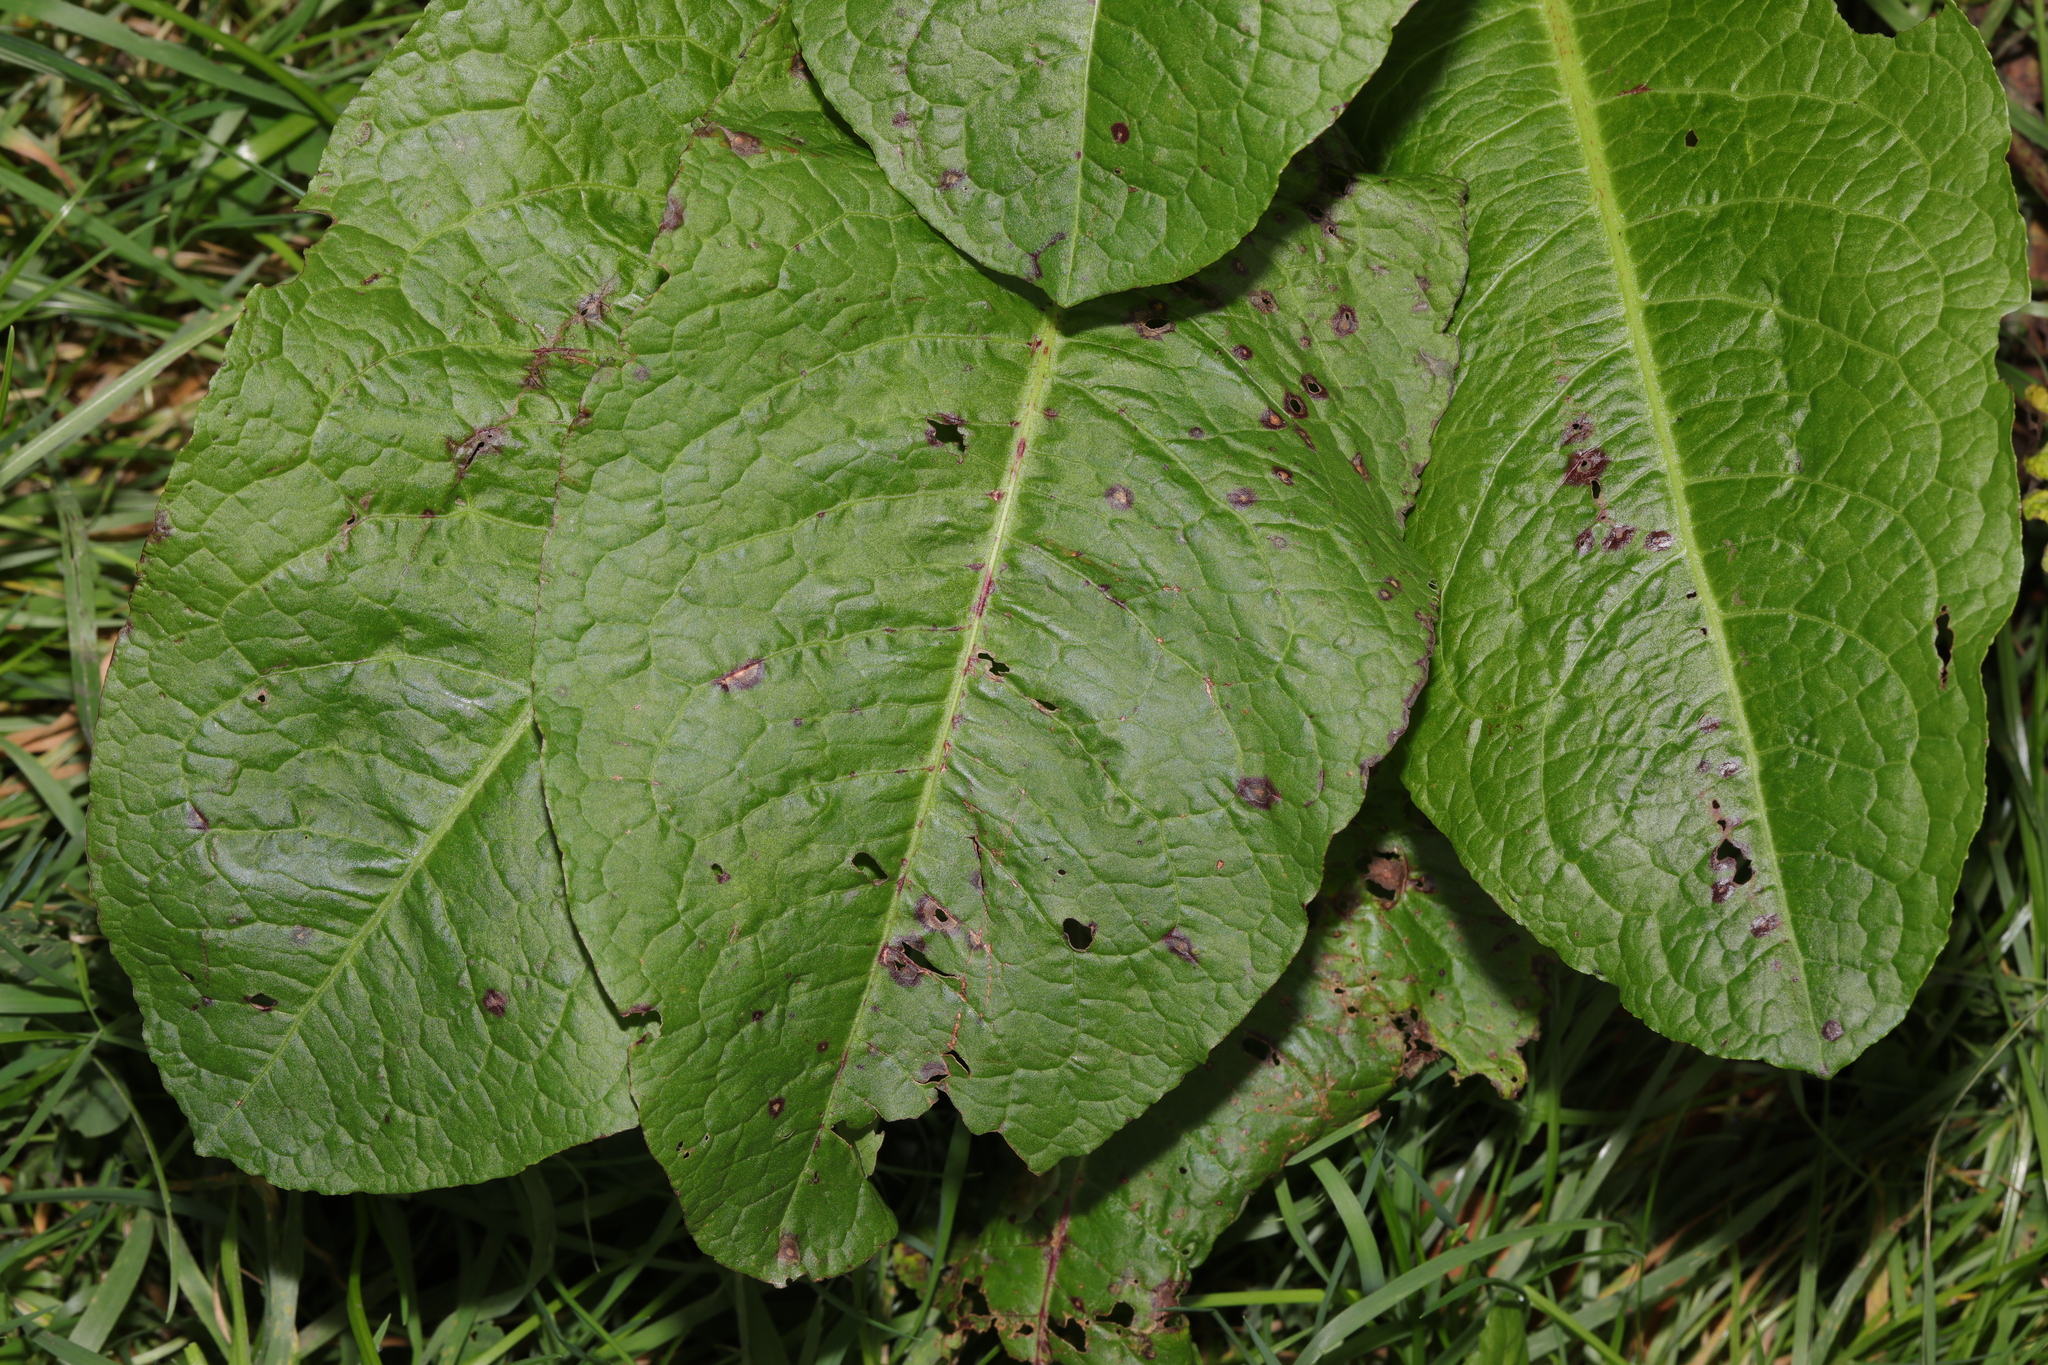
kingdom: Plantae
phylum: Tracheophyta
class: Magnoliopsida
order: Caryophyllales
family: Polygonaceae
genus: Rumex
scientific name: Rumex obtusifolius
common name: Bitter dock
